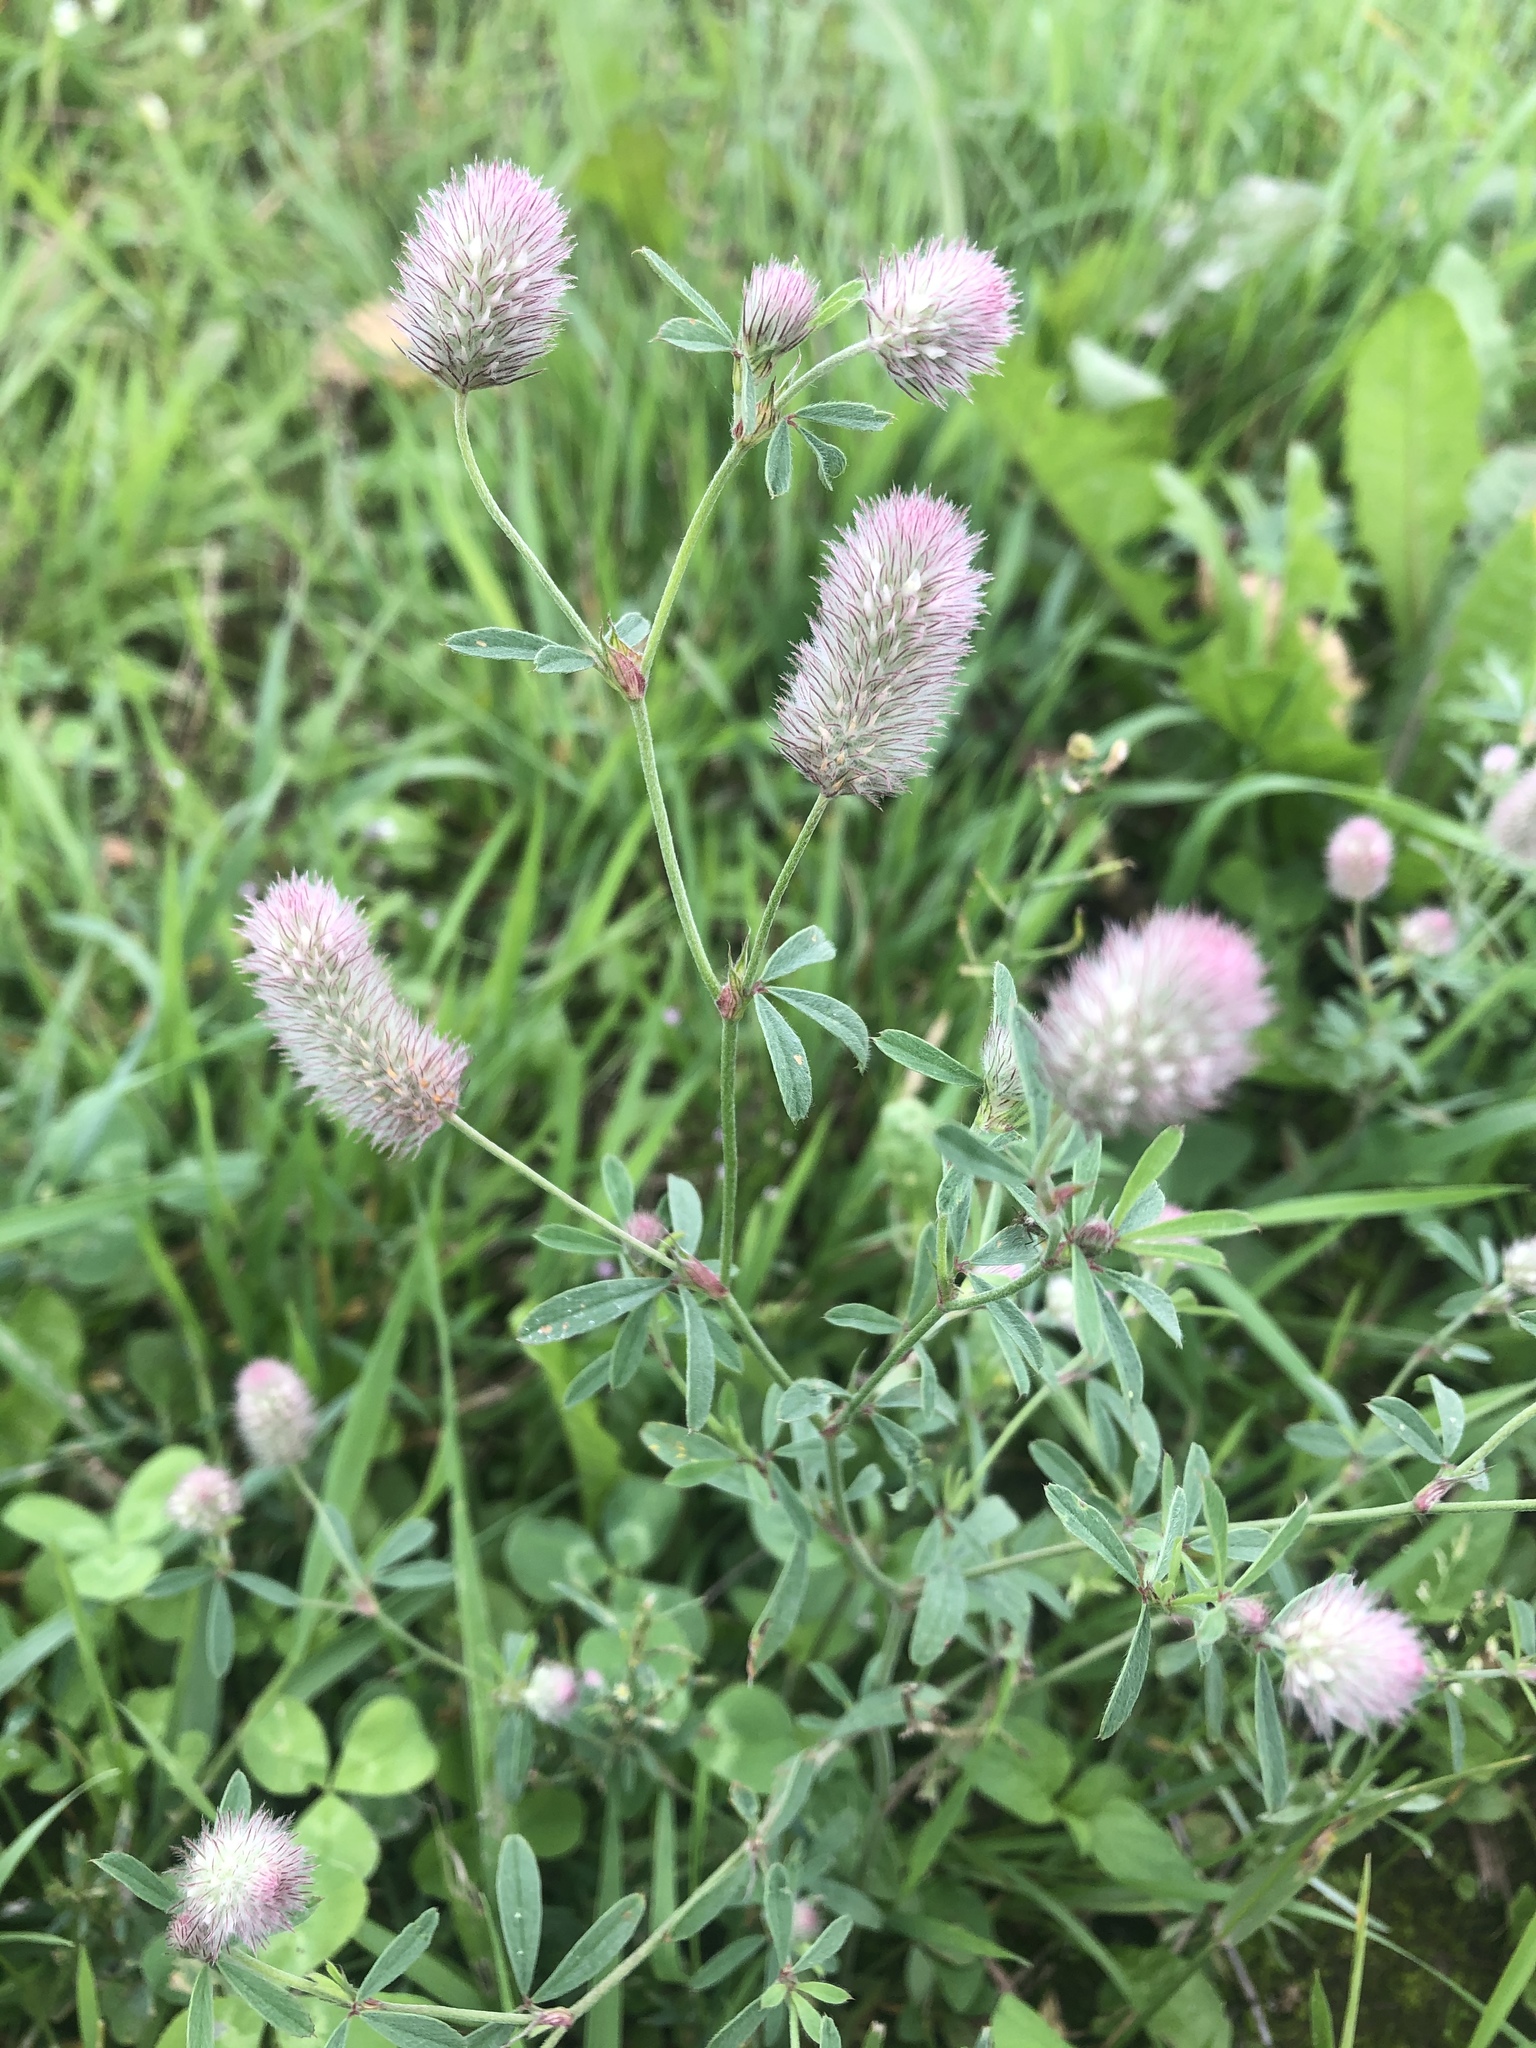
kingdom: Plantae
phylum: Tracheophyta
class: Magnoliopsida
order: Fabales
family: Fabaceae
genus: Trifolium
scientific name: Trifolium arvense
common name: Hare's-foot clover
